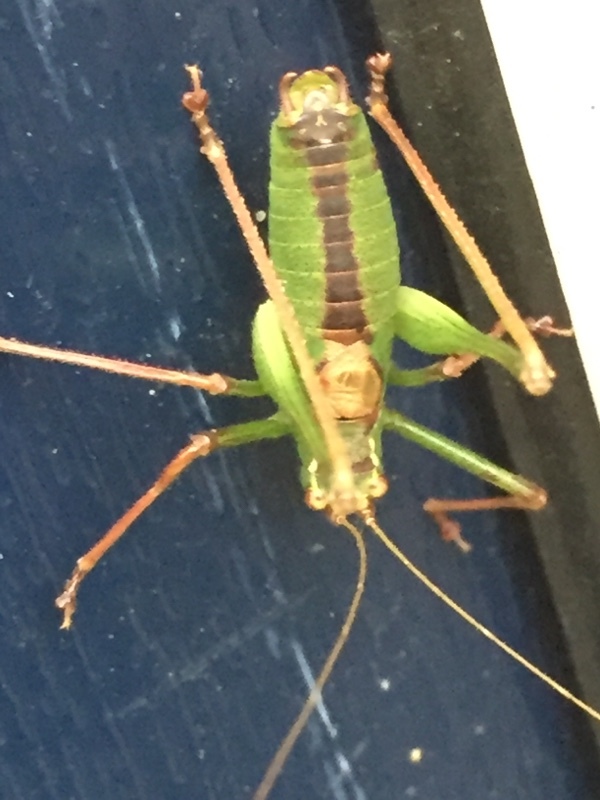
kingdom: Animalia
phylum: Arthropoda
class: Insecta
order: Orthoptera
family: Tettigoniidae
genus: Leptophyes
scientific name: Leptophyes punctatissima
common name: Speckled bush-cricket
